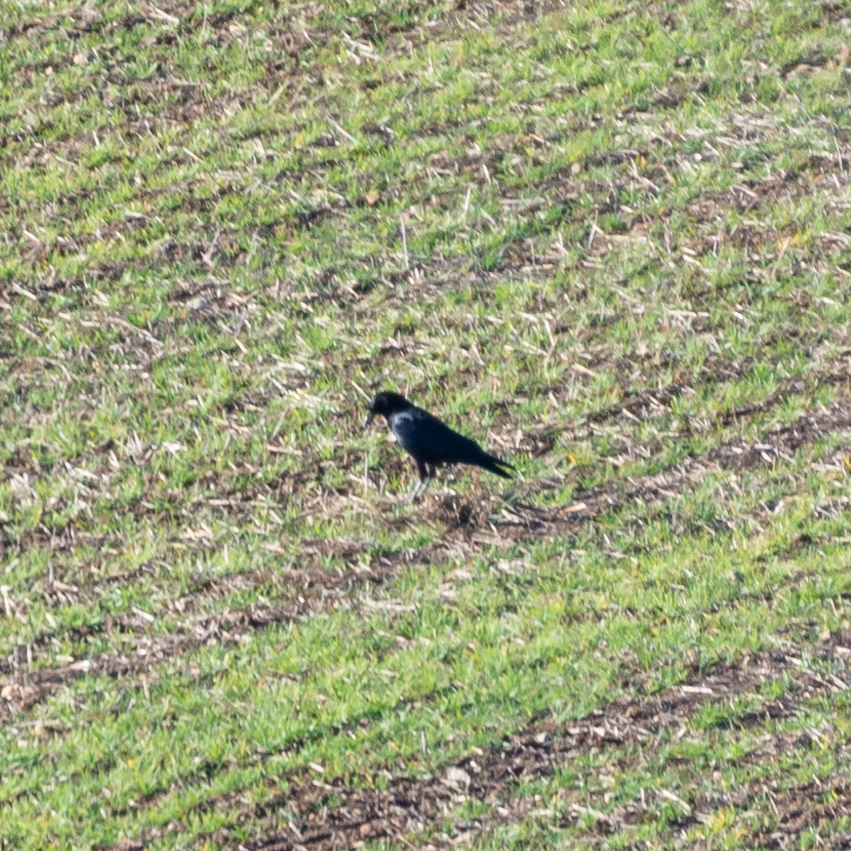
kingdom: Animalia
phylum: Chordata
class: Aves
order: Passeriformes
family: Corvidae
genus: Corvus
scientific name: Corvus corone
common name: Carrion crow
